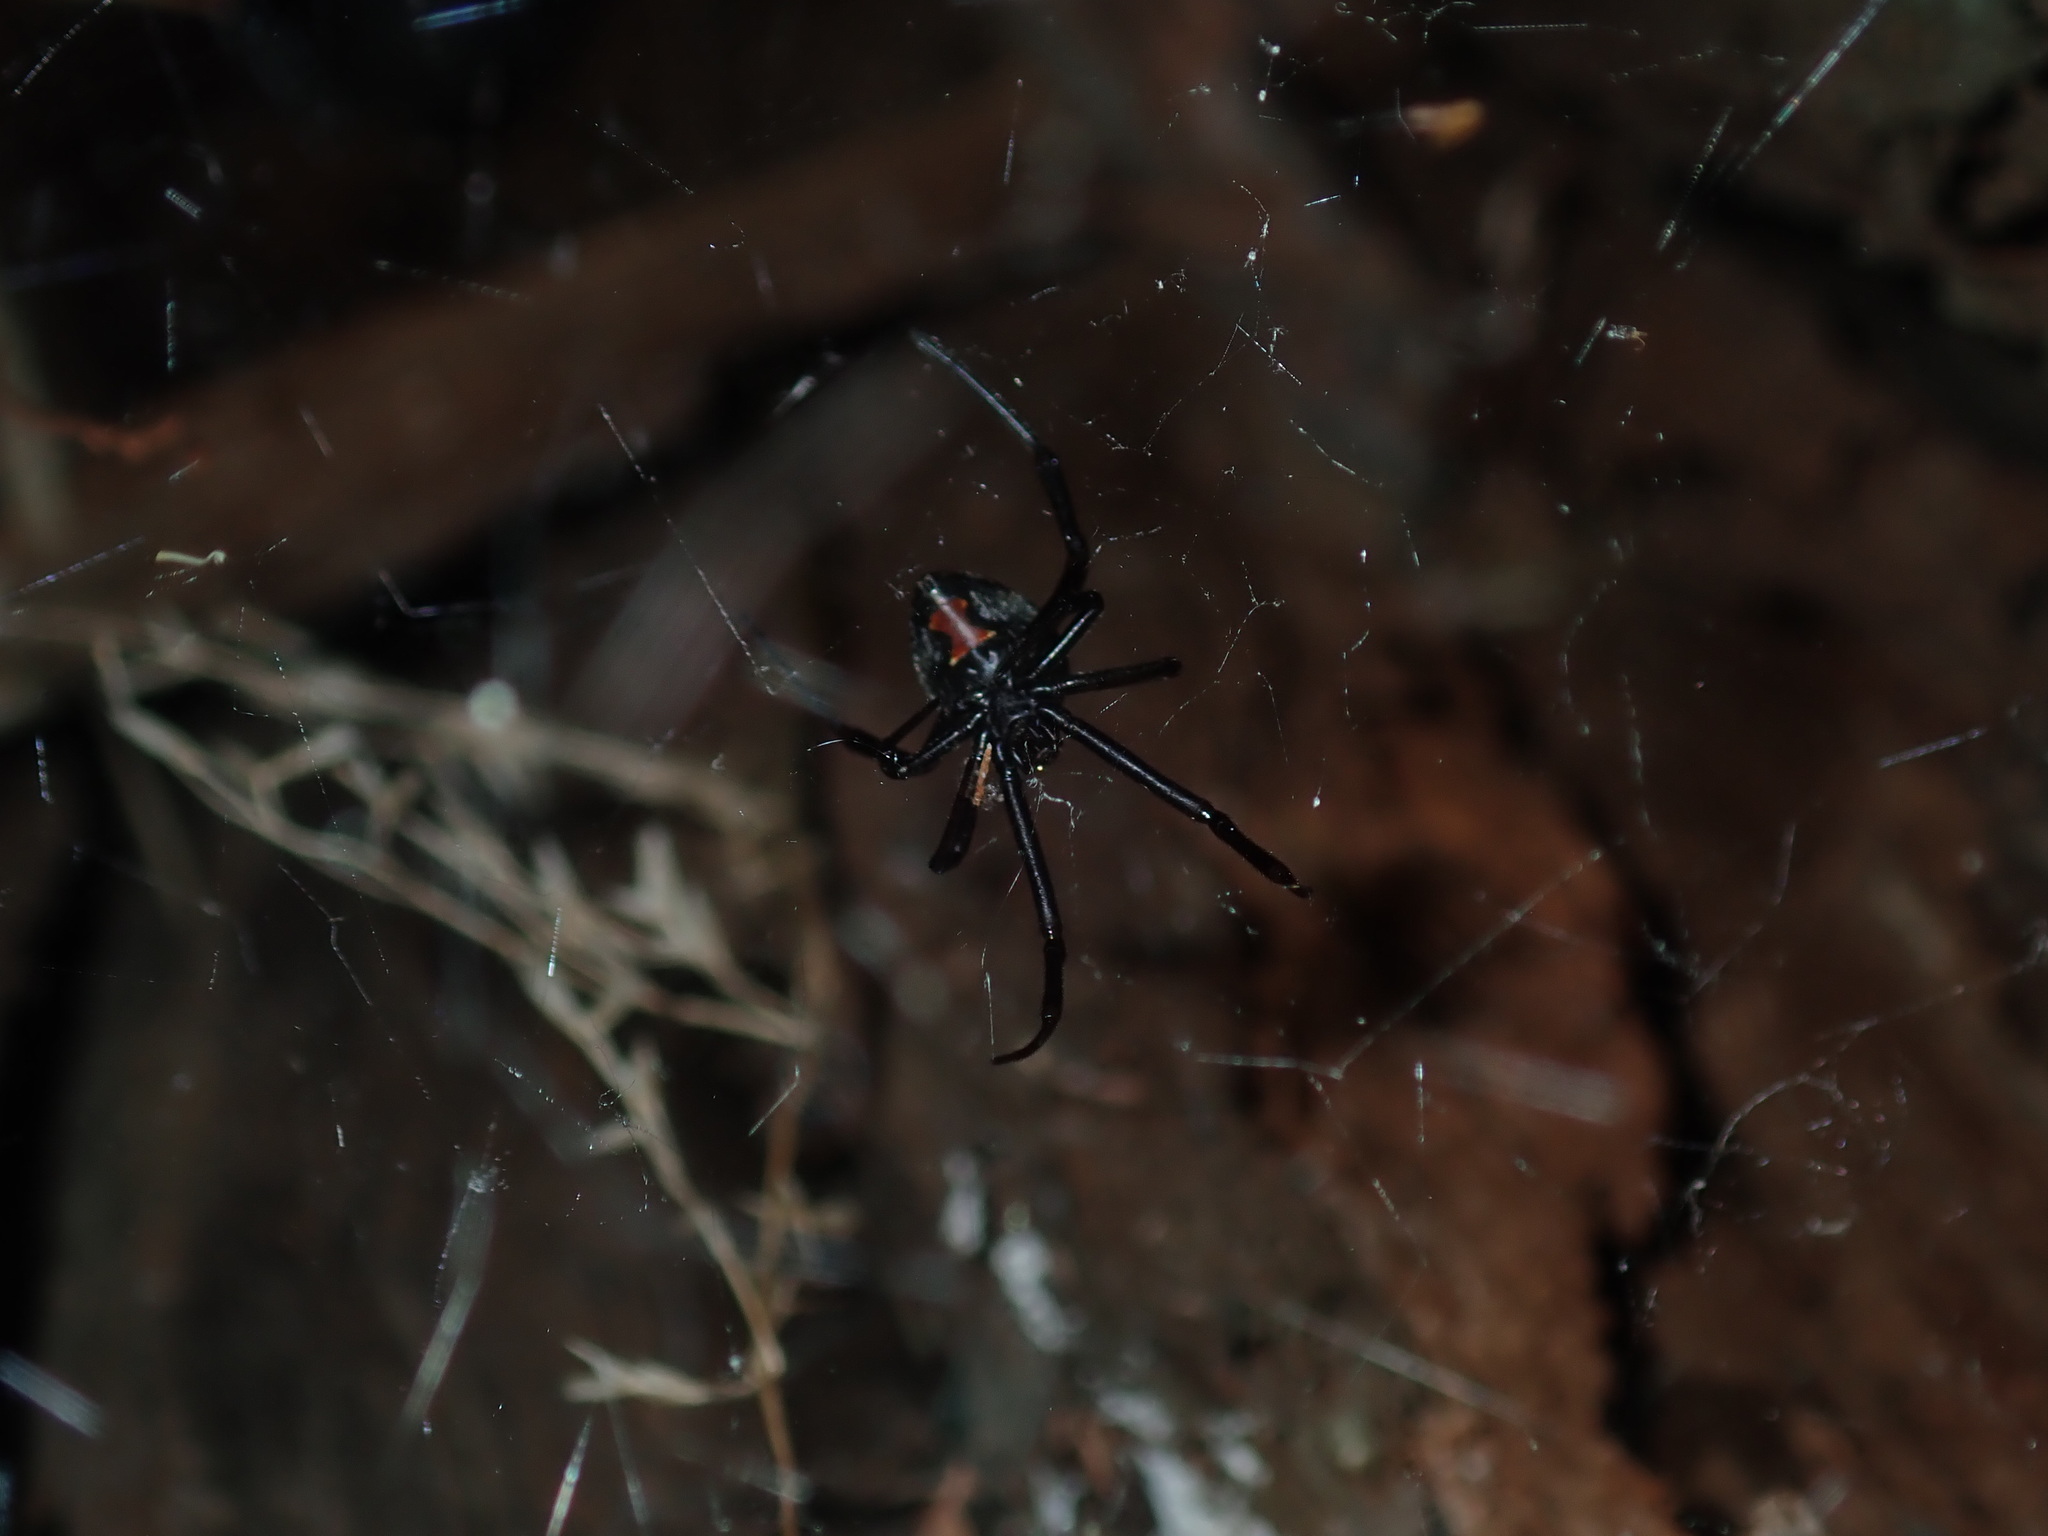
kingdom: Animalia
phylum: Arthropoda
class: Arachnida
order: Araneae
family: Theridiidae
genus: Latrodectus
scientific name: Latrodectus hasselti
